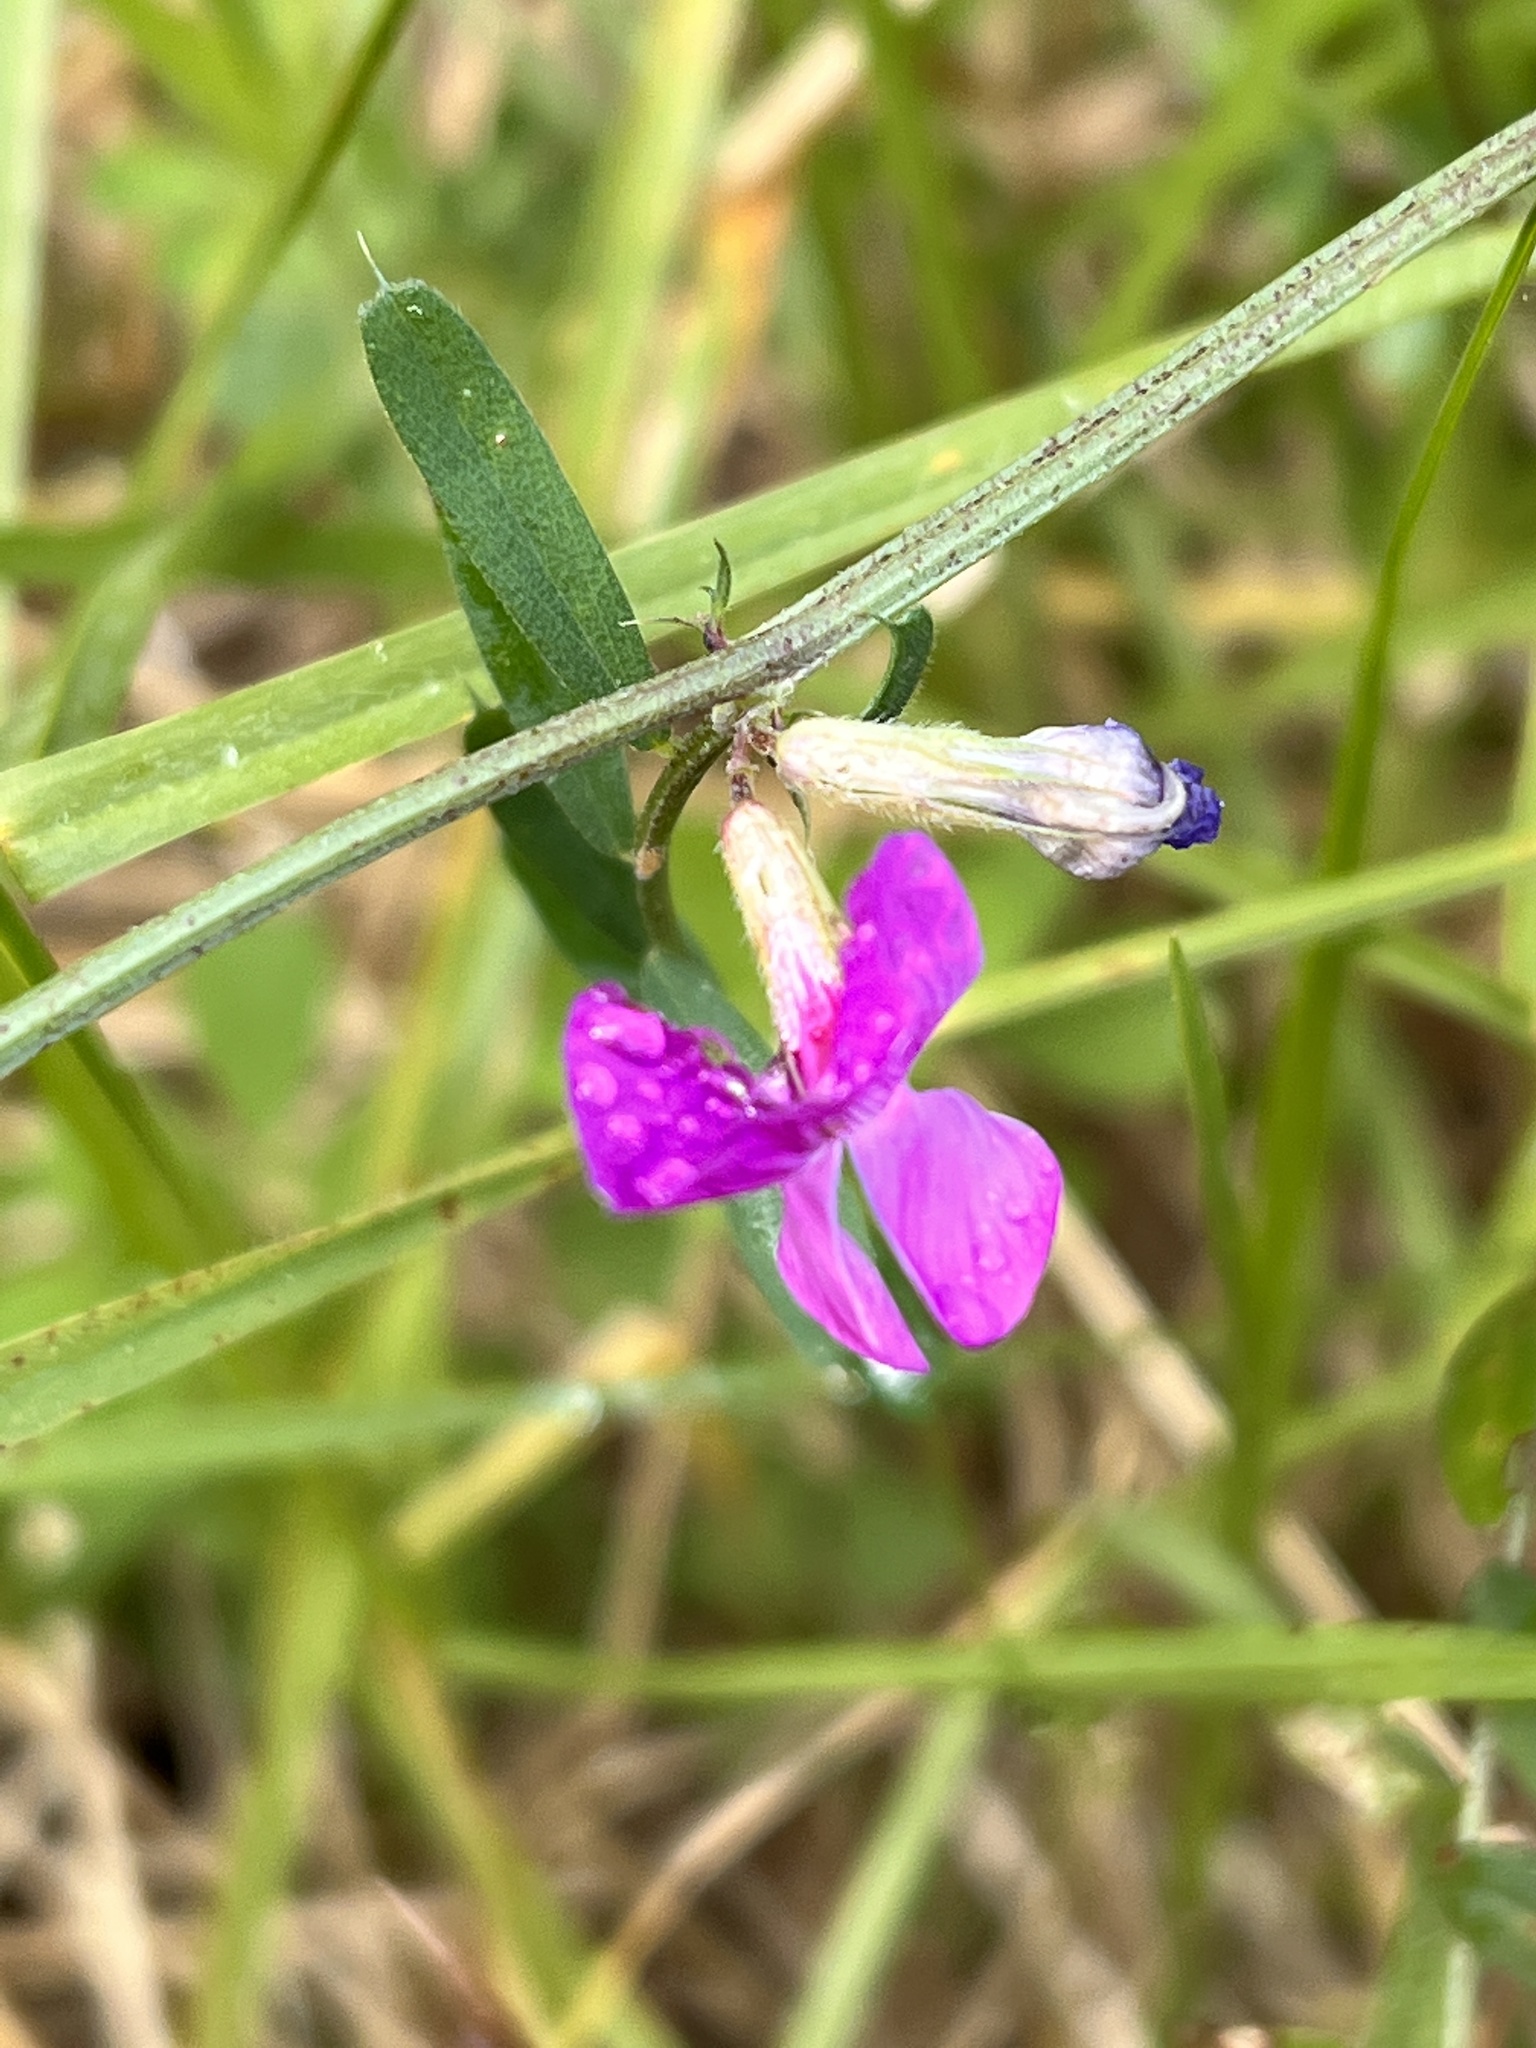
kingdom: Plantae
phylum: Tracheophyta
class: Magnoliopsida
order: Fabales
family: Fabaceae
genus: Vicia
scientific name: Vicia sativa
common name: Garden vetch
